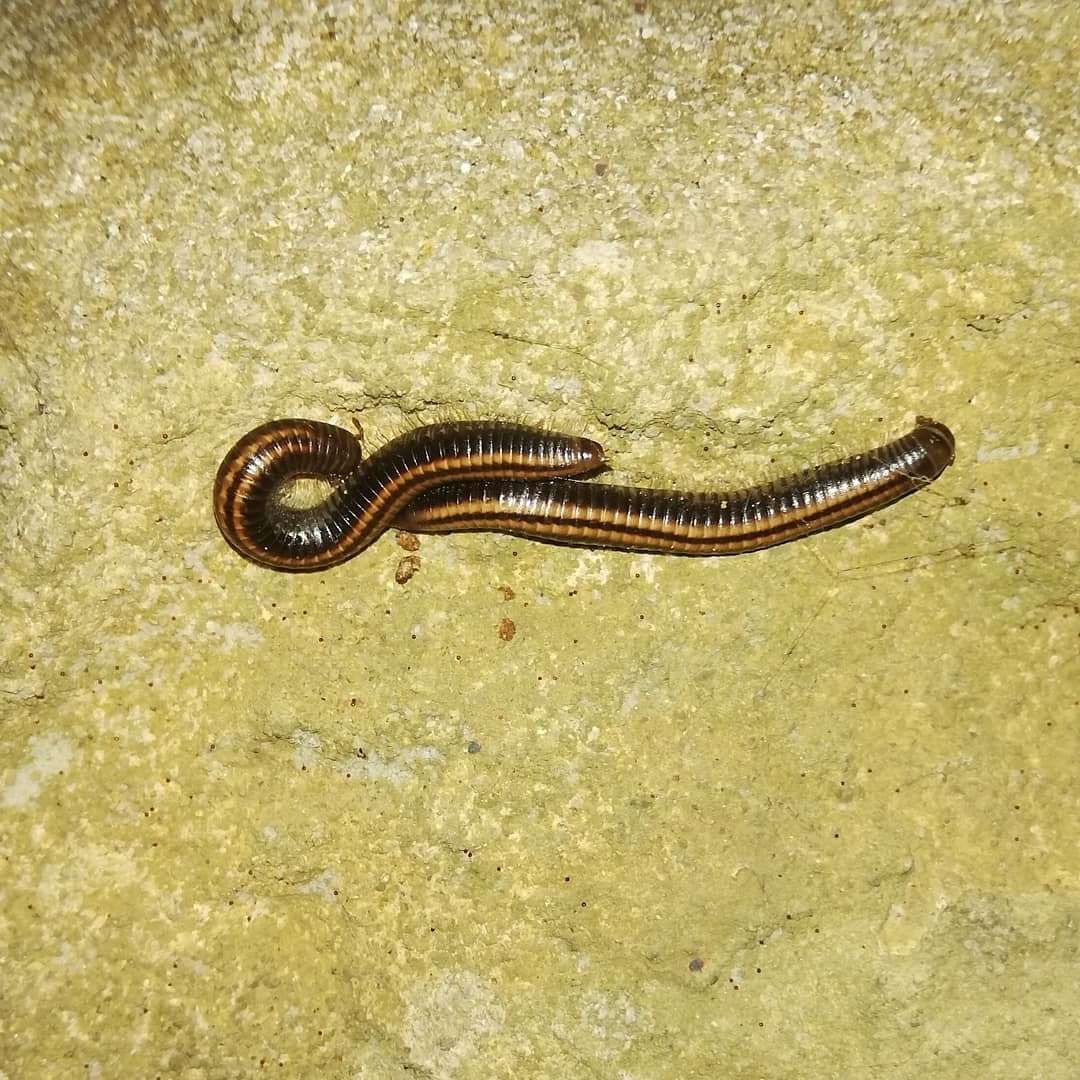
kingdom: Animalia
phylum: Arthropoda
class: Diplopoda
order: Julida
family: Julidae
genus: Ommatoiulus
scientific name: Ommatoiulus sabulosus
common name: Striped millipede
